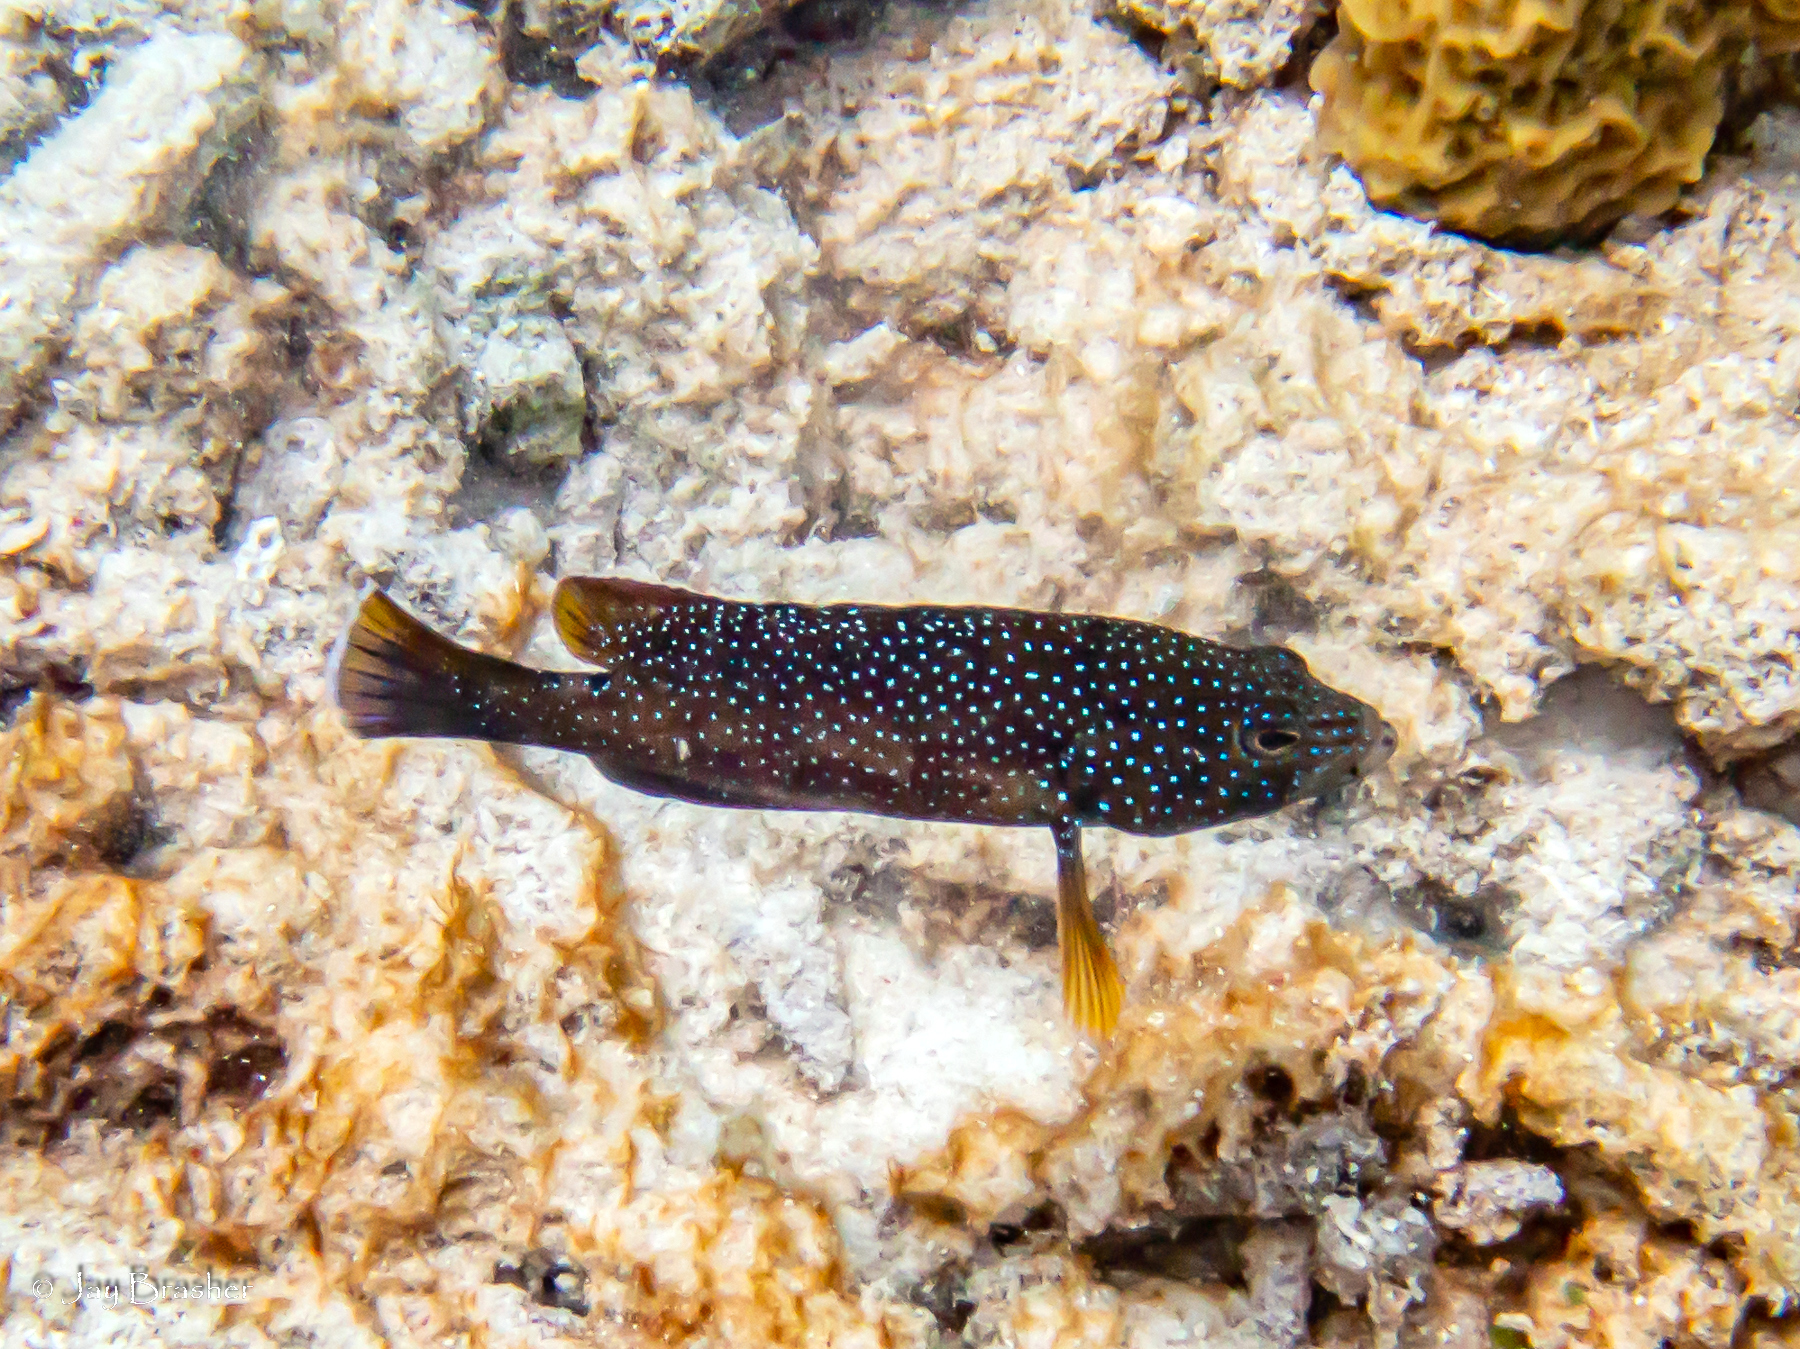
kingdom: Animalia
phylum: Chordata
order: Perciformes
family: Serranidae
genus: Cephalopholis
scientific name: Cephalopholis fulva
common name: Butterfish
